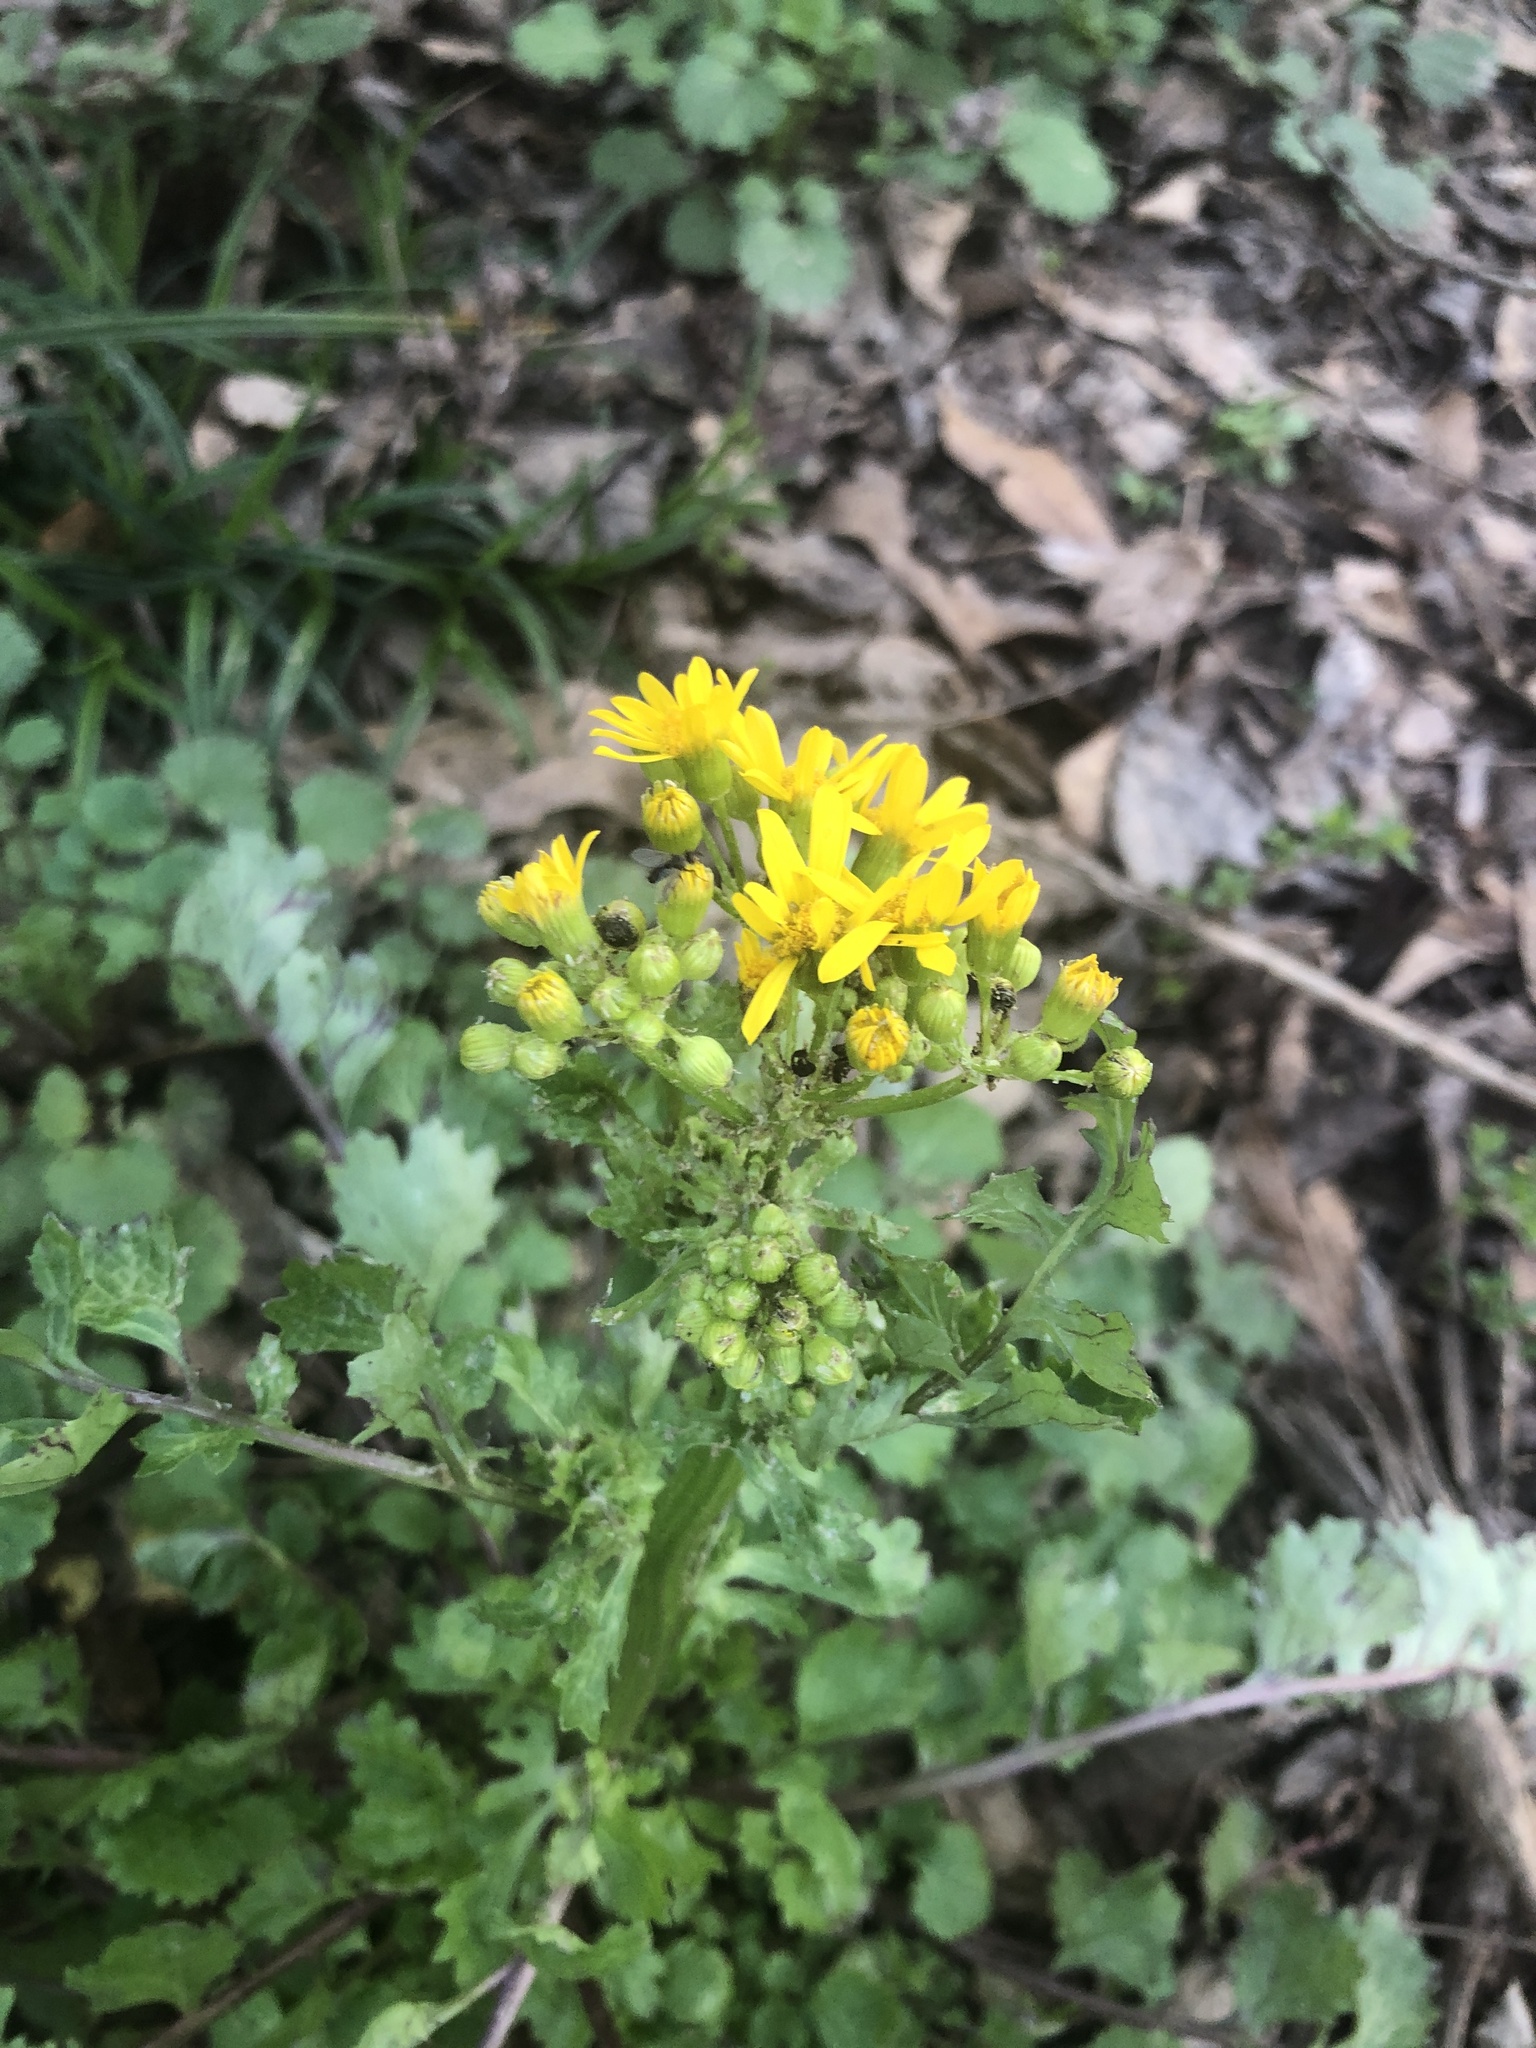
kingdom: Plantae
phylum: Tracheophyta
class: Magnoliopsida
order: Asterales
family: Asteraceae
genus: Packera
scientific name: Packera glabella
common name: Butterweed
